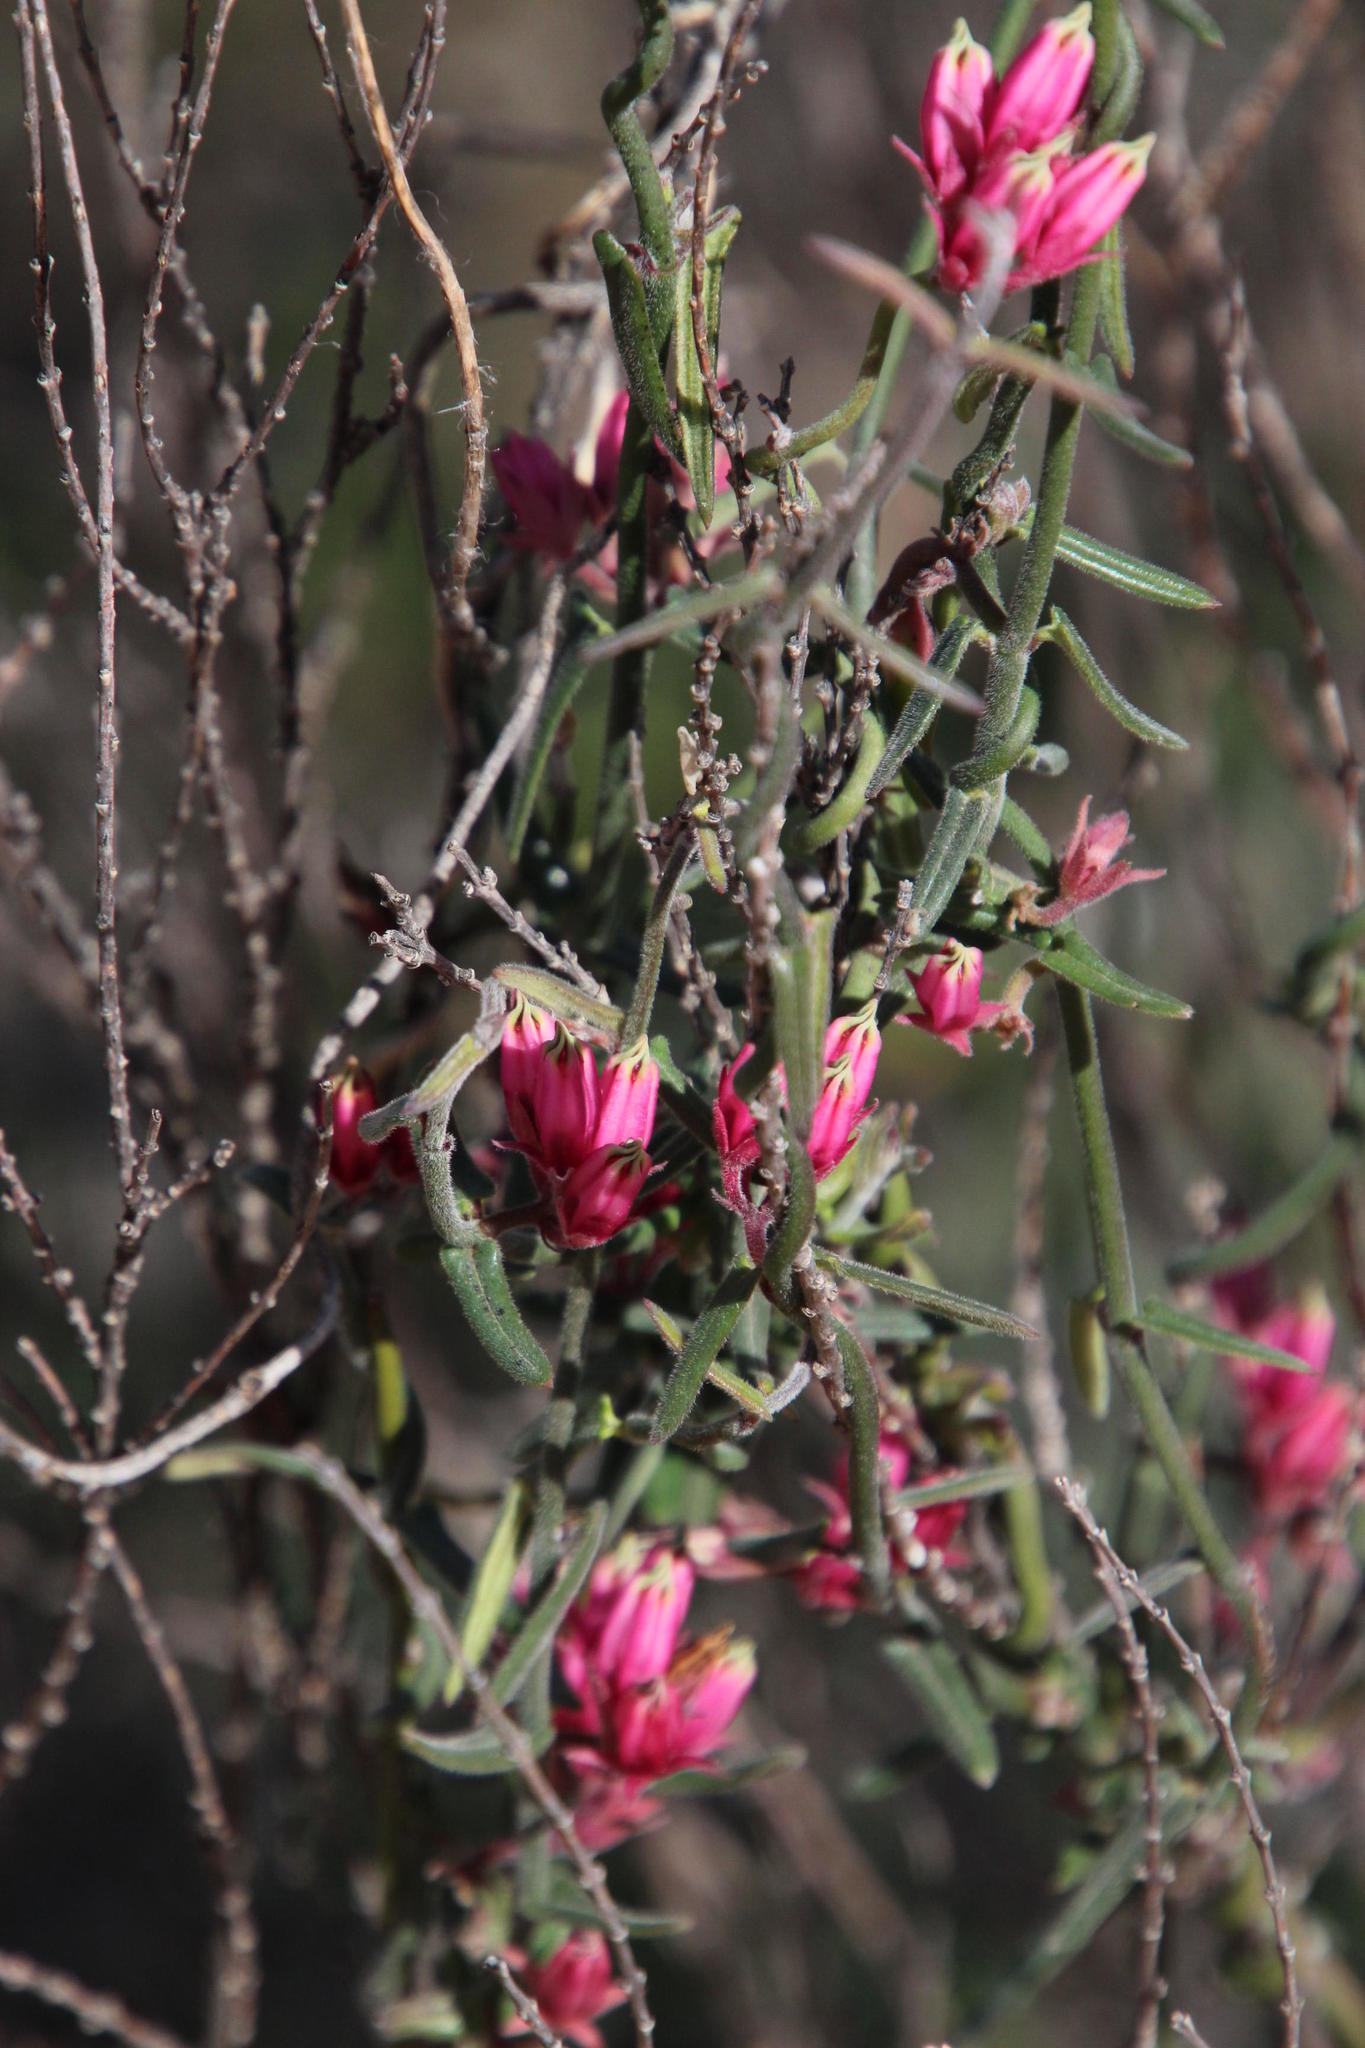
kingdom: Plantae
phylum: Tracheophyta
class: Magnoliopsida
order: Gentianales
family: Apocynaceae
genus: Microloma
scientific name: Microloma sagittatum
